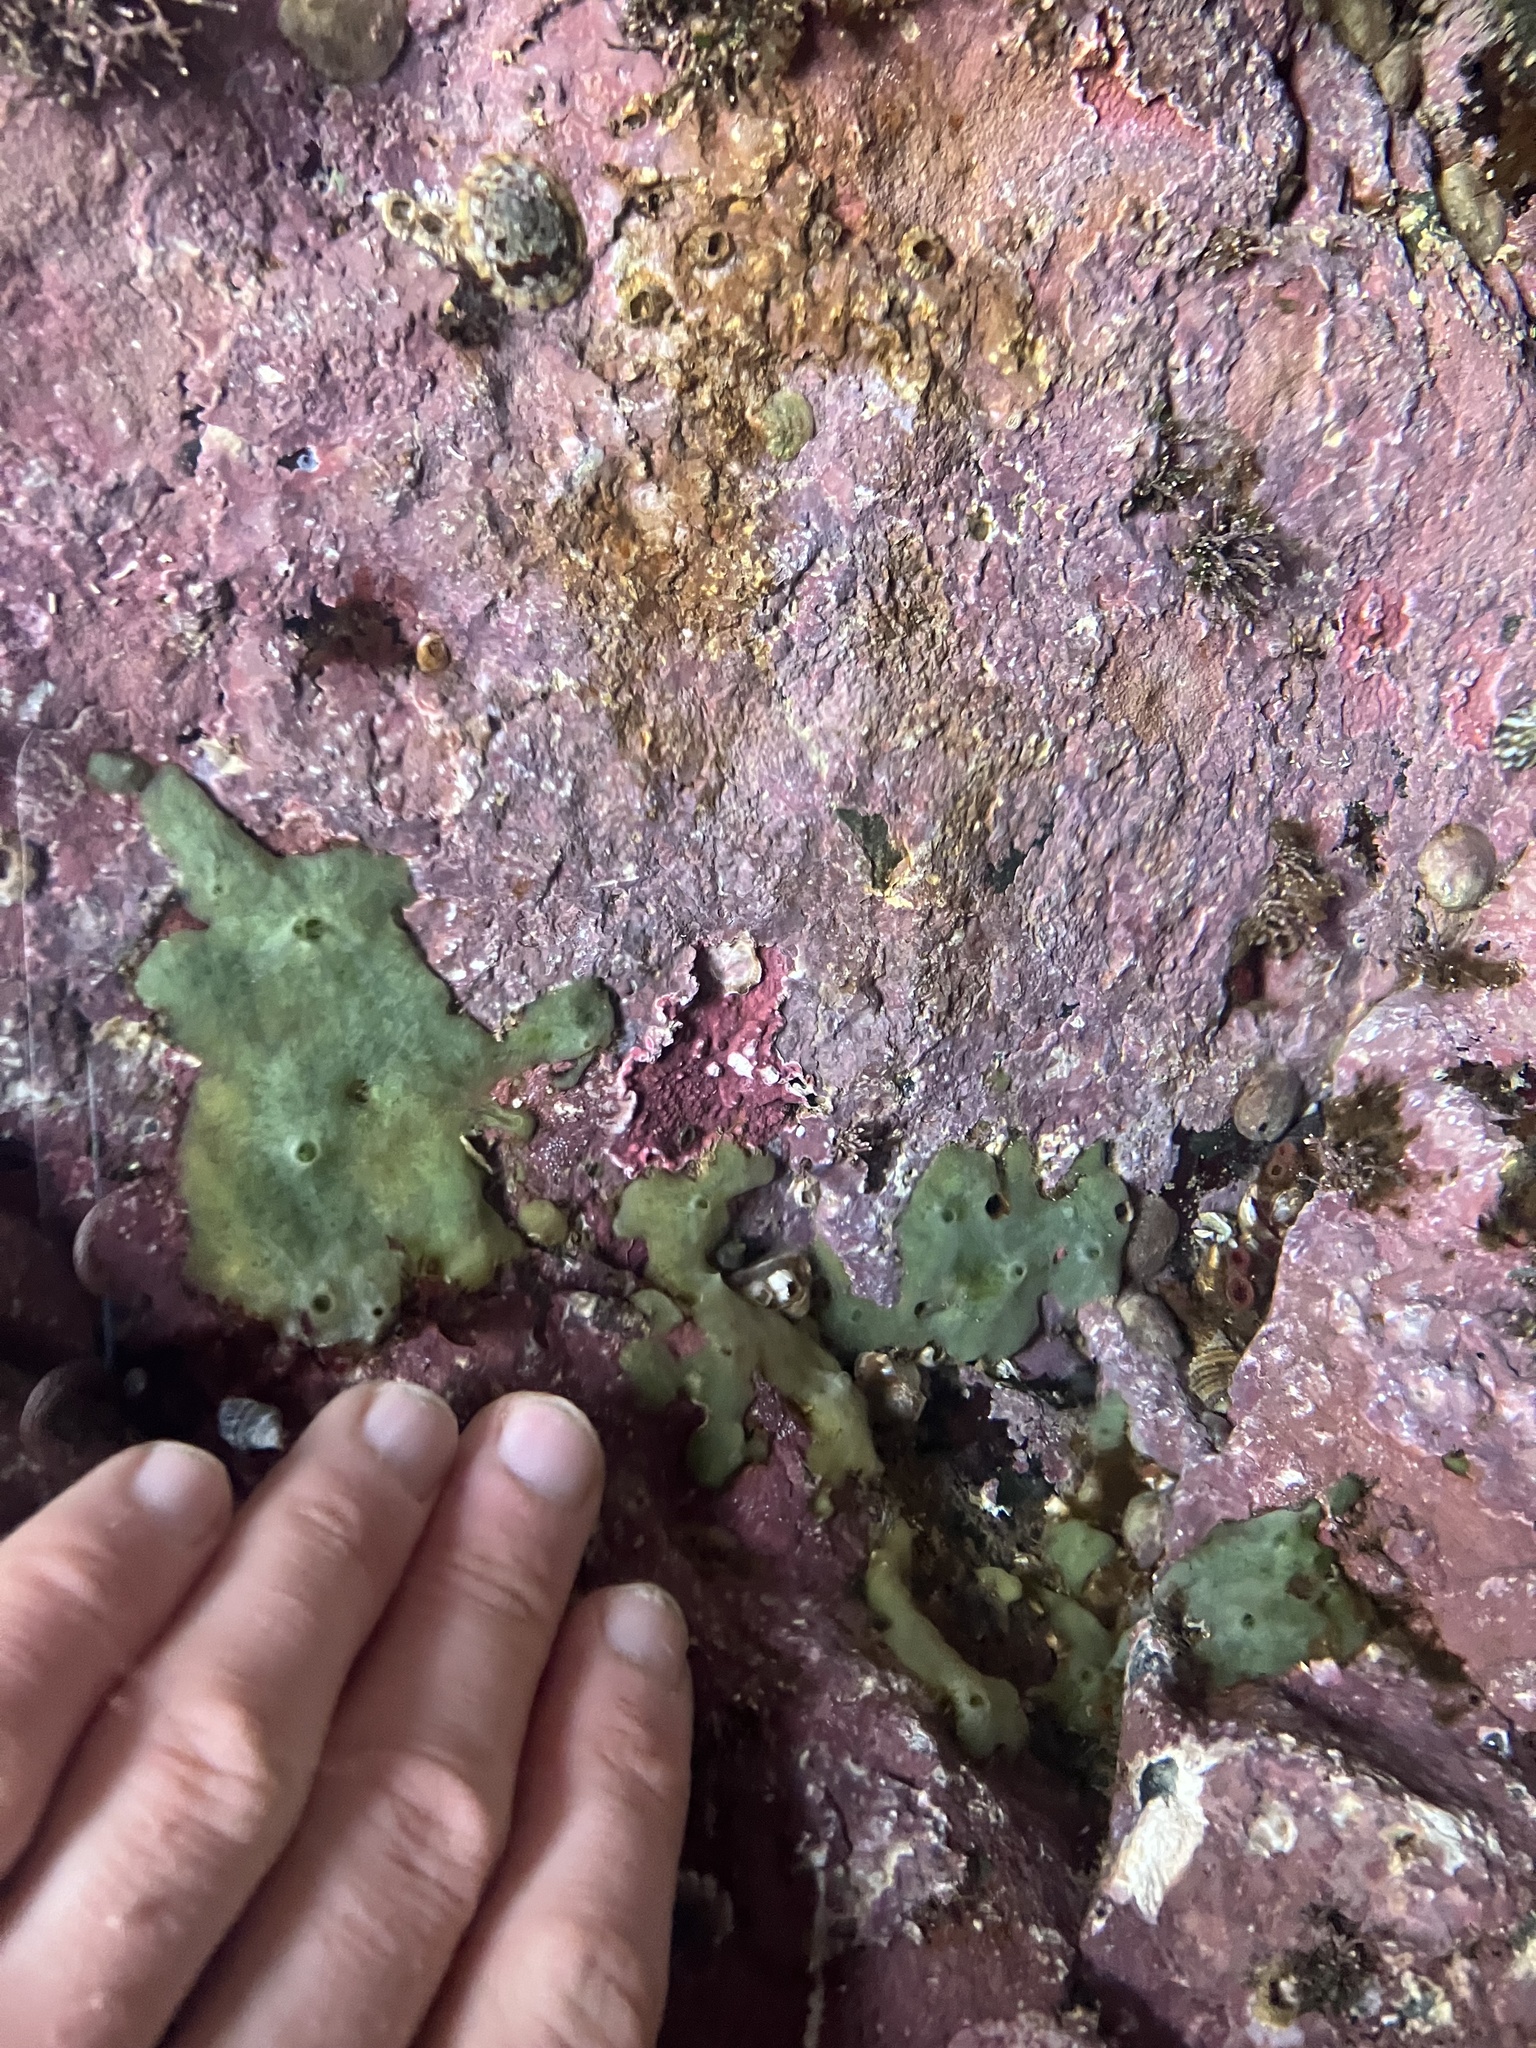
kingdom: Animalia
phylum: Porifera
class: Demospongiae
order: Suberitida
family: Halichondriidae
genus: Halichondria
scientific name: Halichondria panicea
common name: Breadcrumb sponge
